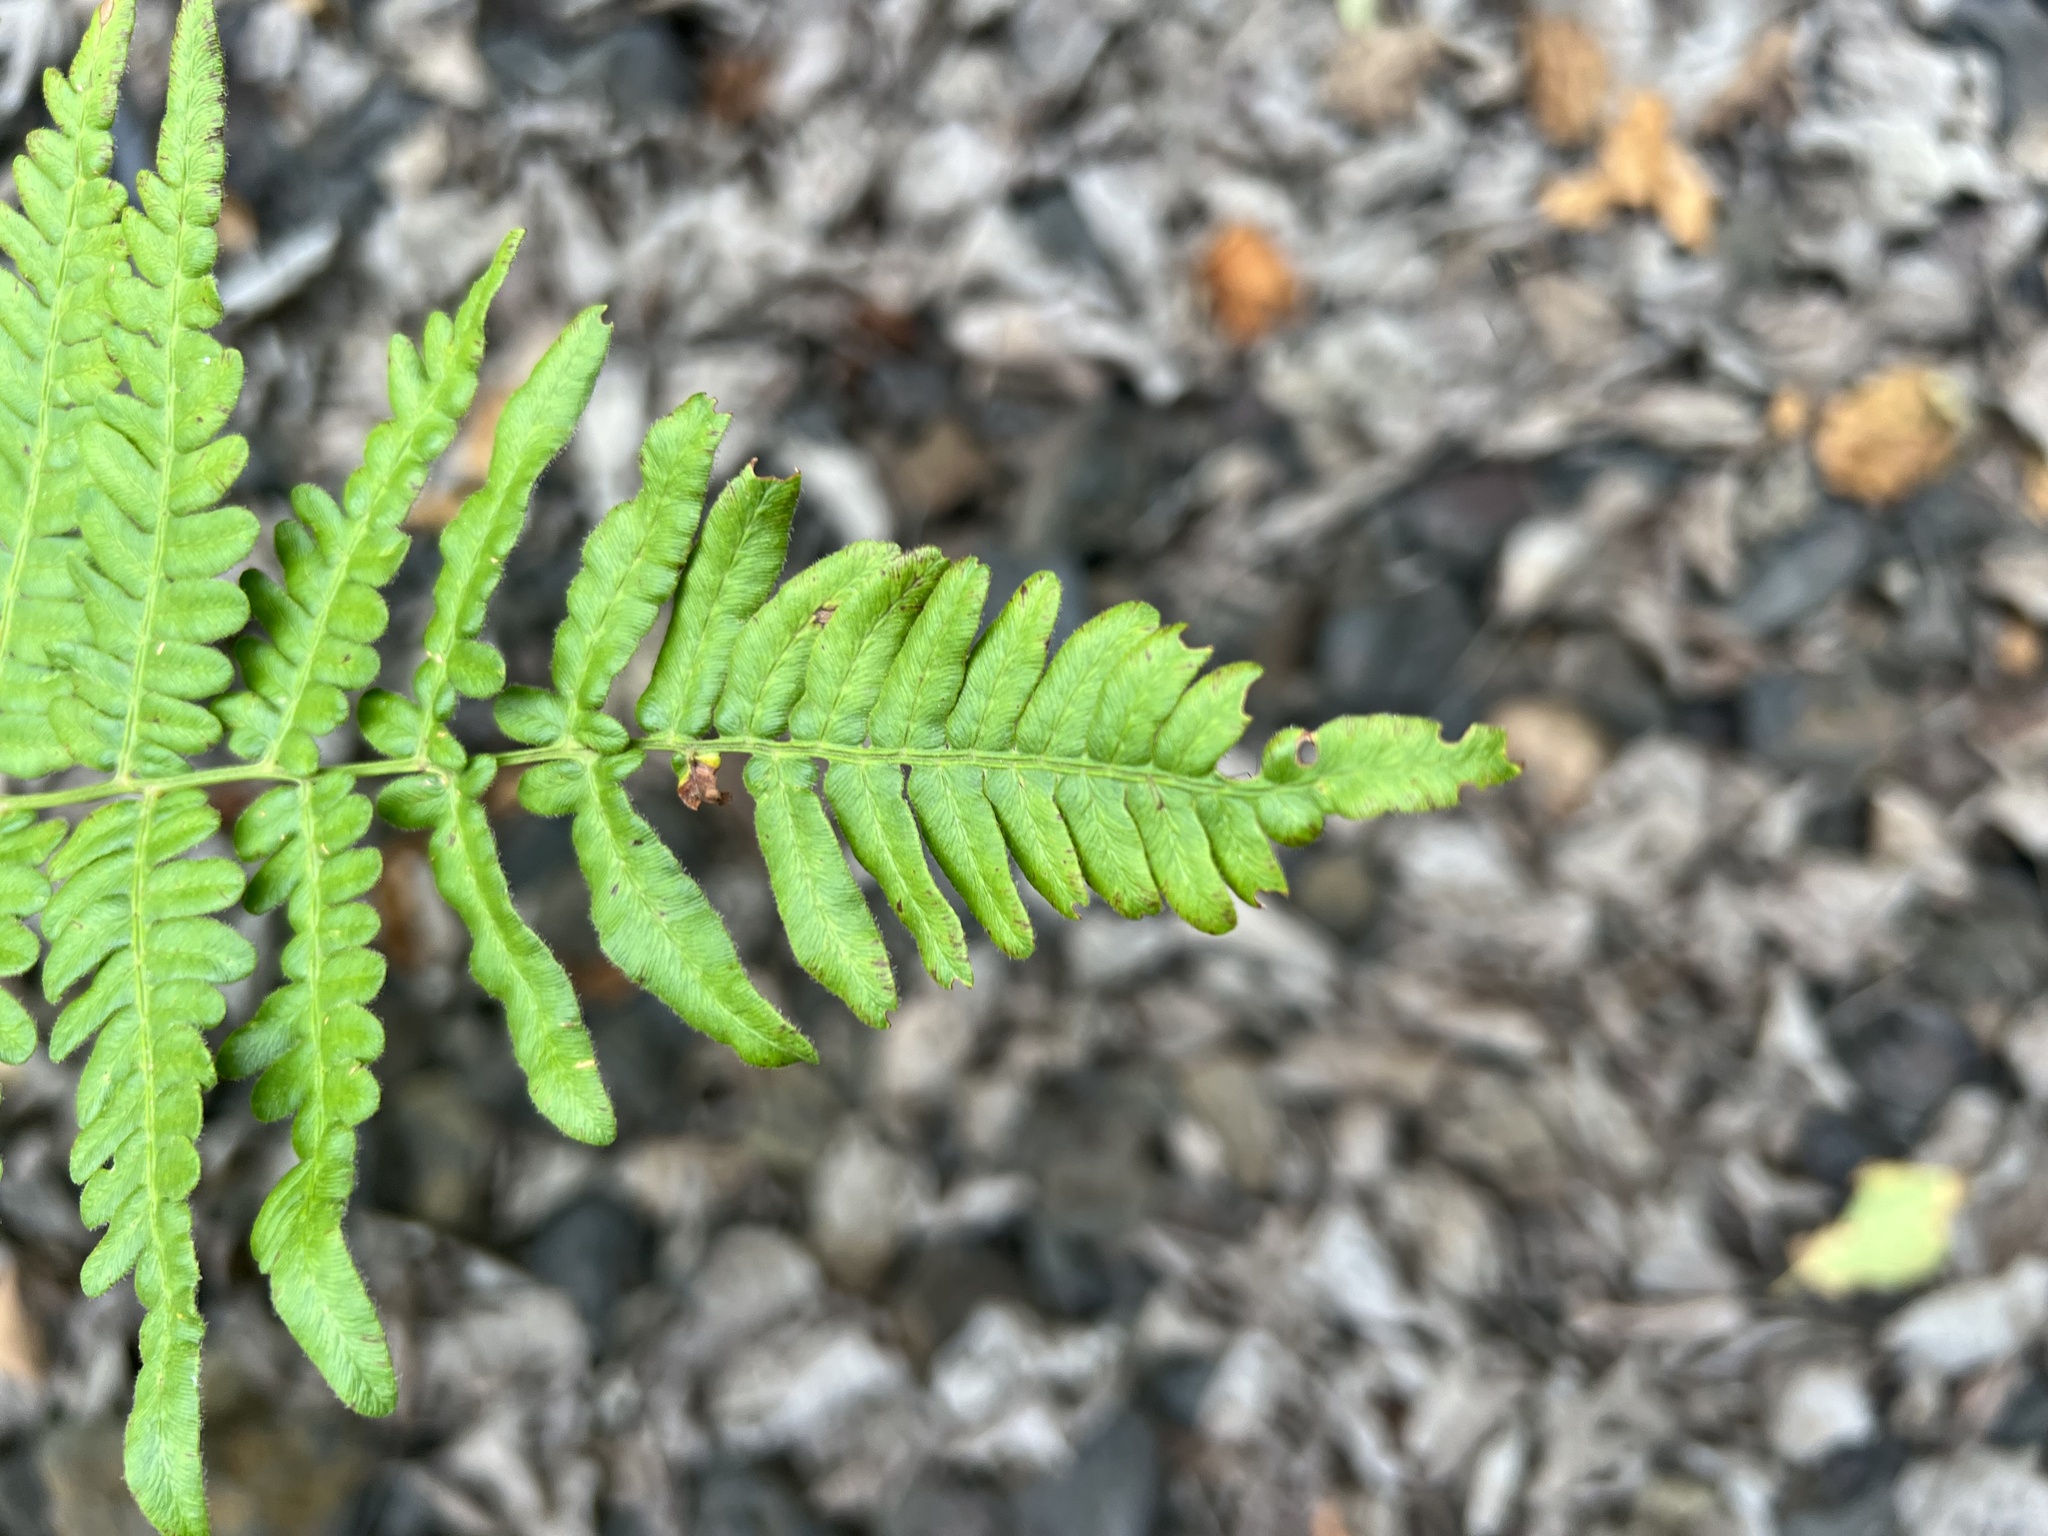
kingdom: Plantae
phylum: Tracheophyta
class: Polypodiopsida
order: Polypodiales
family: Dennstaedtiaceae
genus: Pteridium
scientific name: Pteridium aquilinum
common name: Bracken
